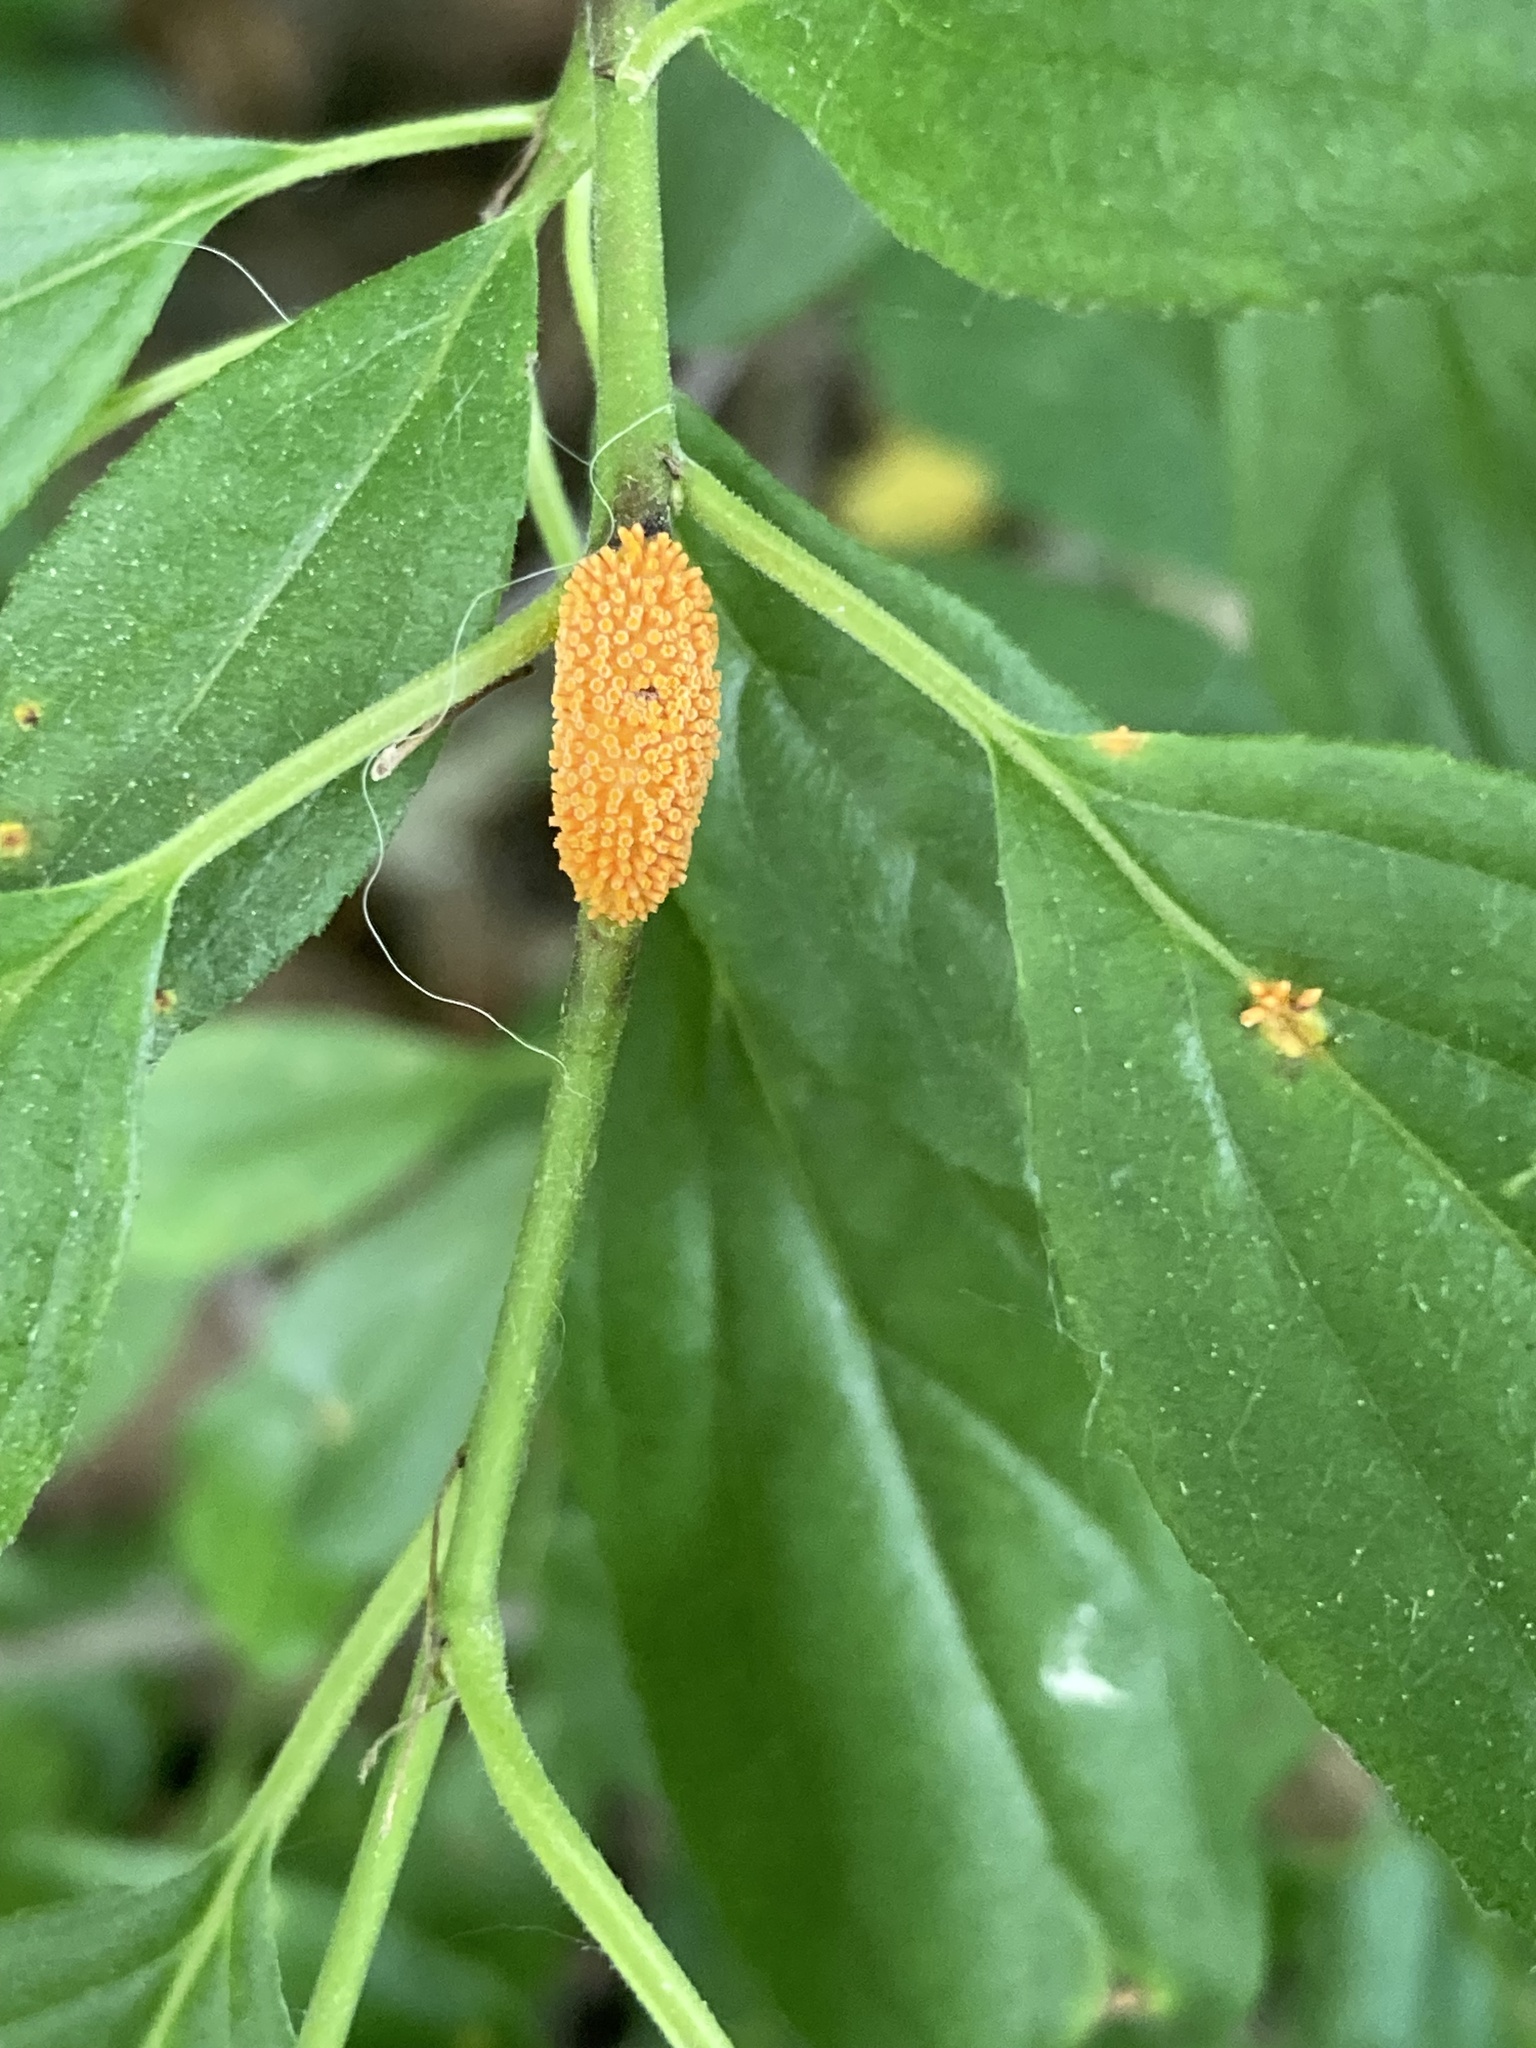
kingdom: Fungi
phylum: Basidiomycota
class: Pucciniomycetes
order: Pucciniales
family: Pucciniaceae
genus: Puccinia
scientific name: Puccinia coronata
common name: Crown rust
